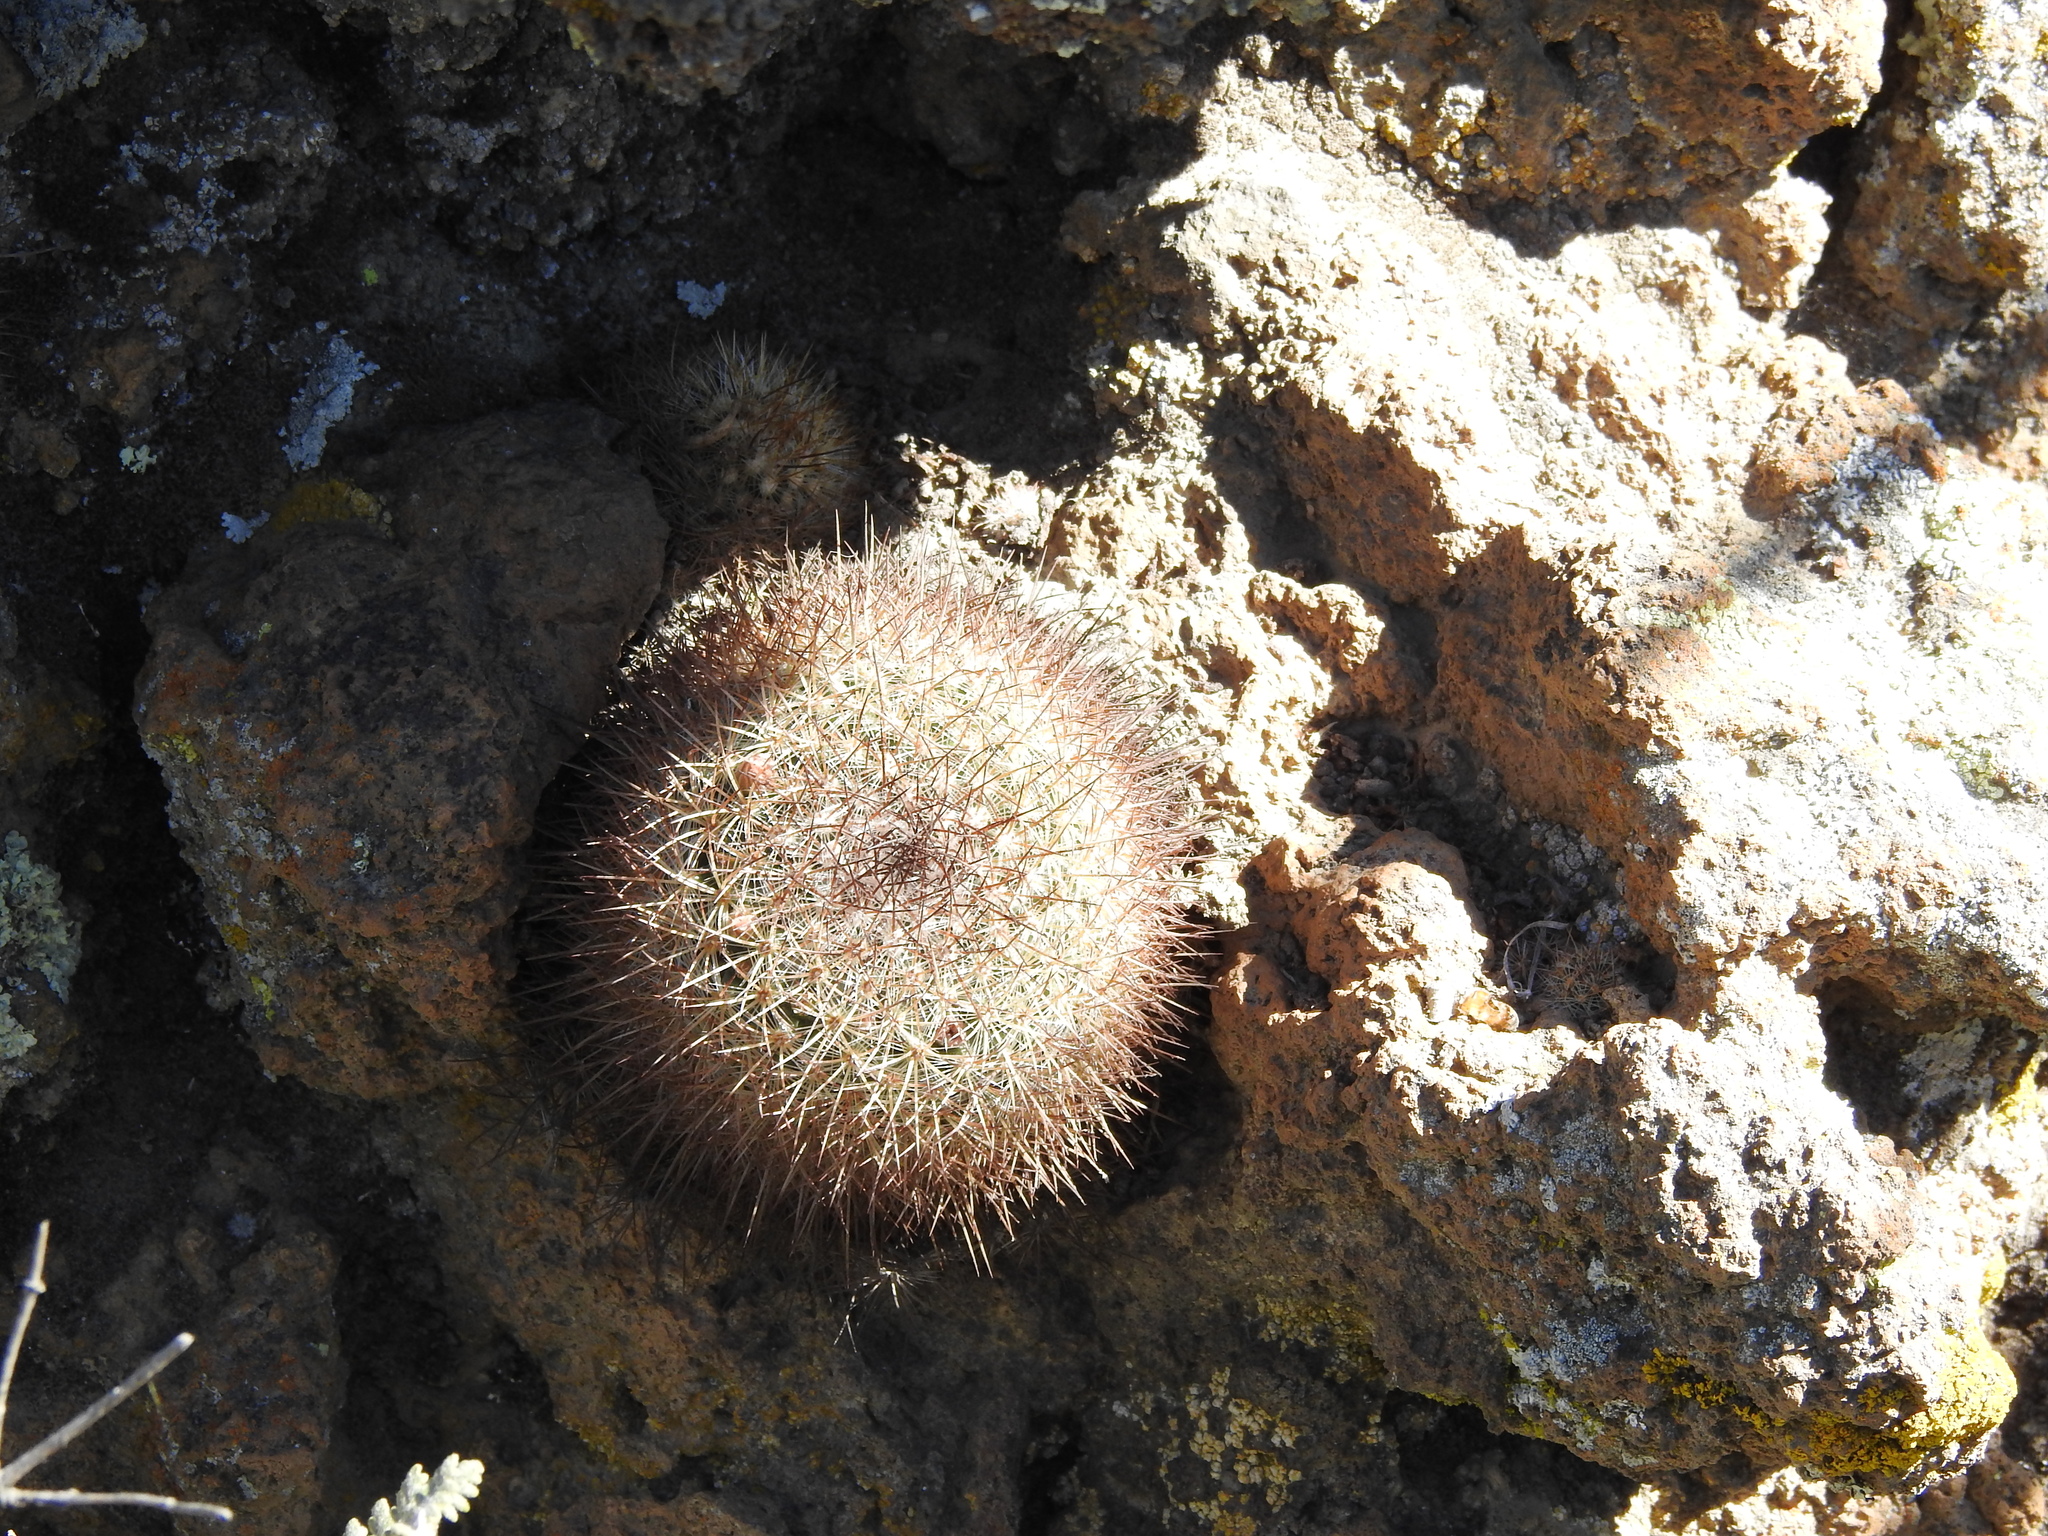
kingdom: Plantae
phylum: Tracheophyta
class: Magnoliopsida
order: Caryophyllales
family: Cactaceae
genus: Mammillaria
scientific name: Mammillaria discolor
